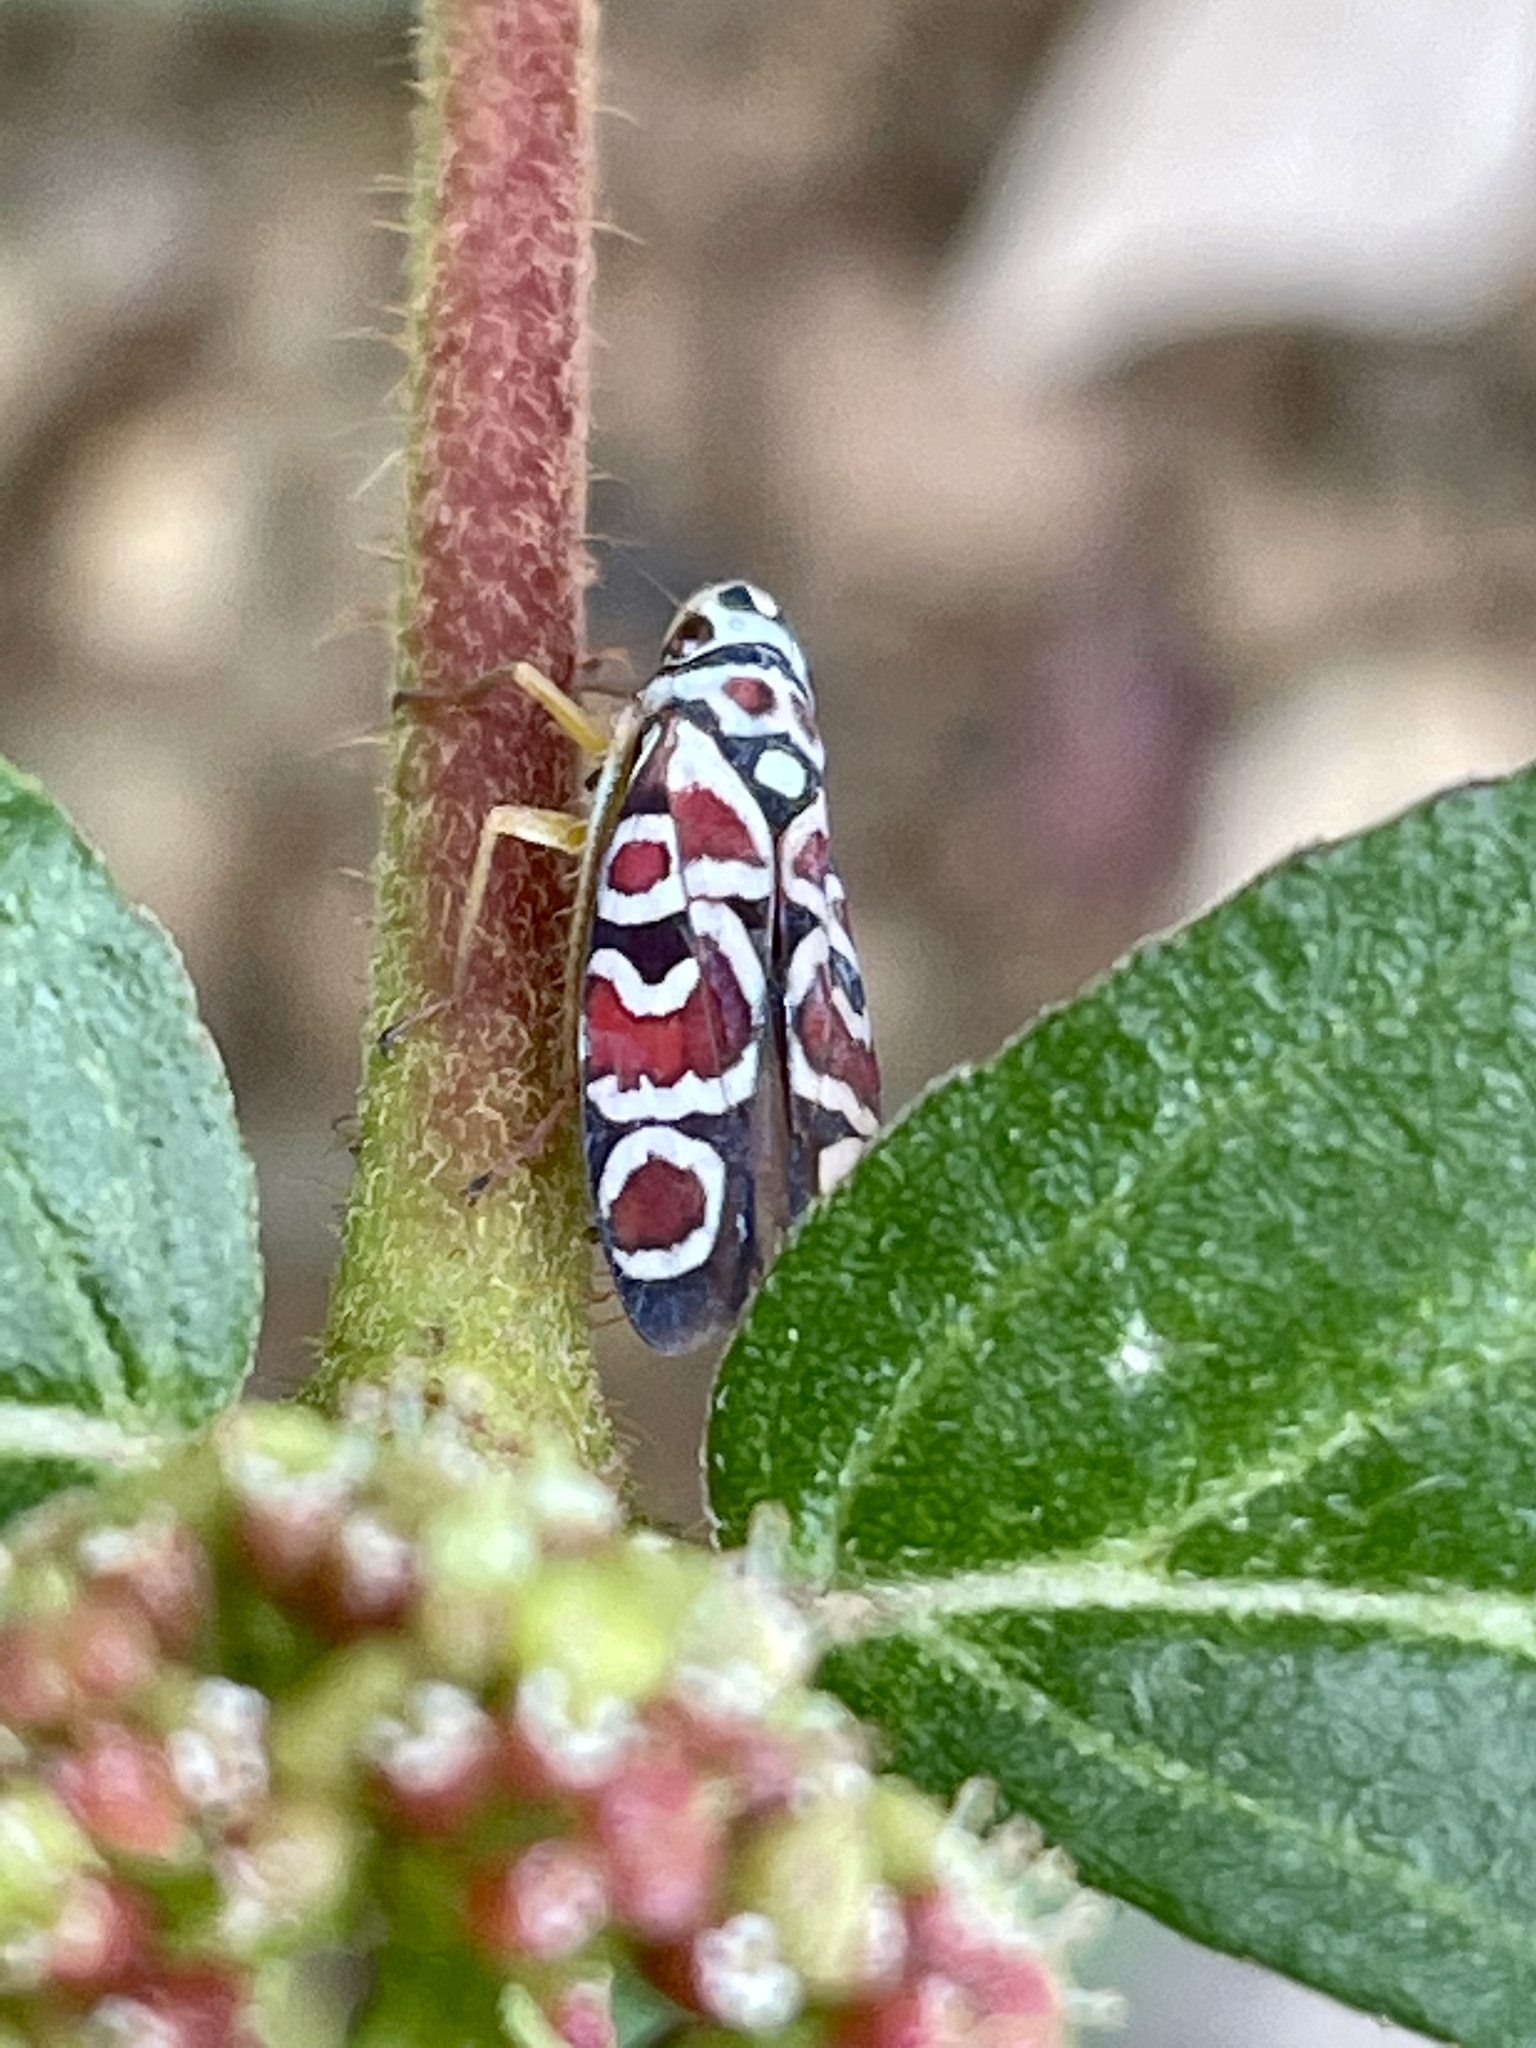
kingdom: Plantae
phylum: Tracheophyta
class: Magnoliopsida
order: Malpighiales
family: Euphorbiaceae
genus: Euphorbia
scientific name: Euphorbia hirta
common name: Pillpod sandmat
